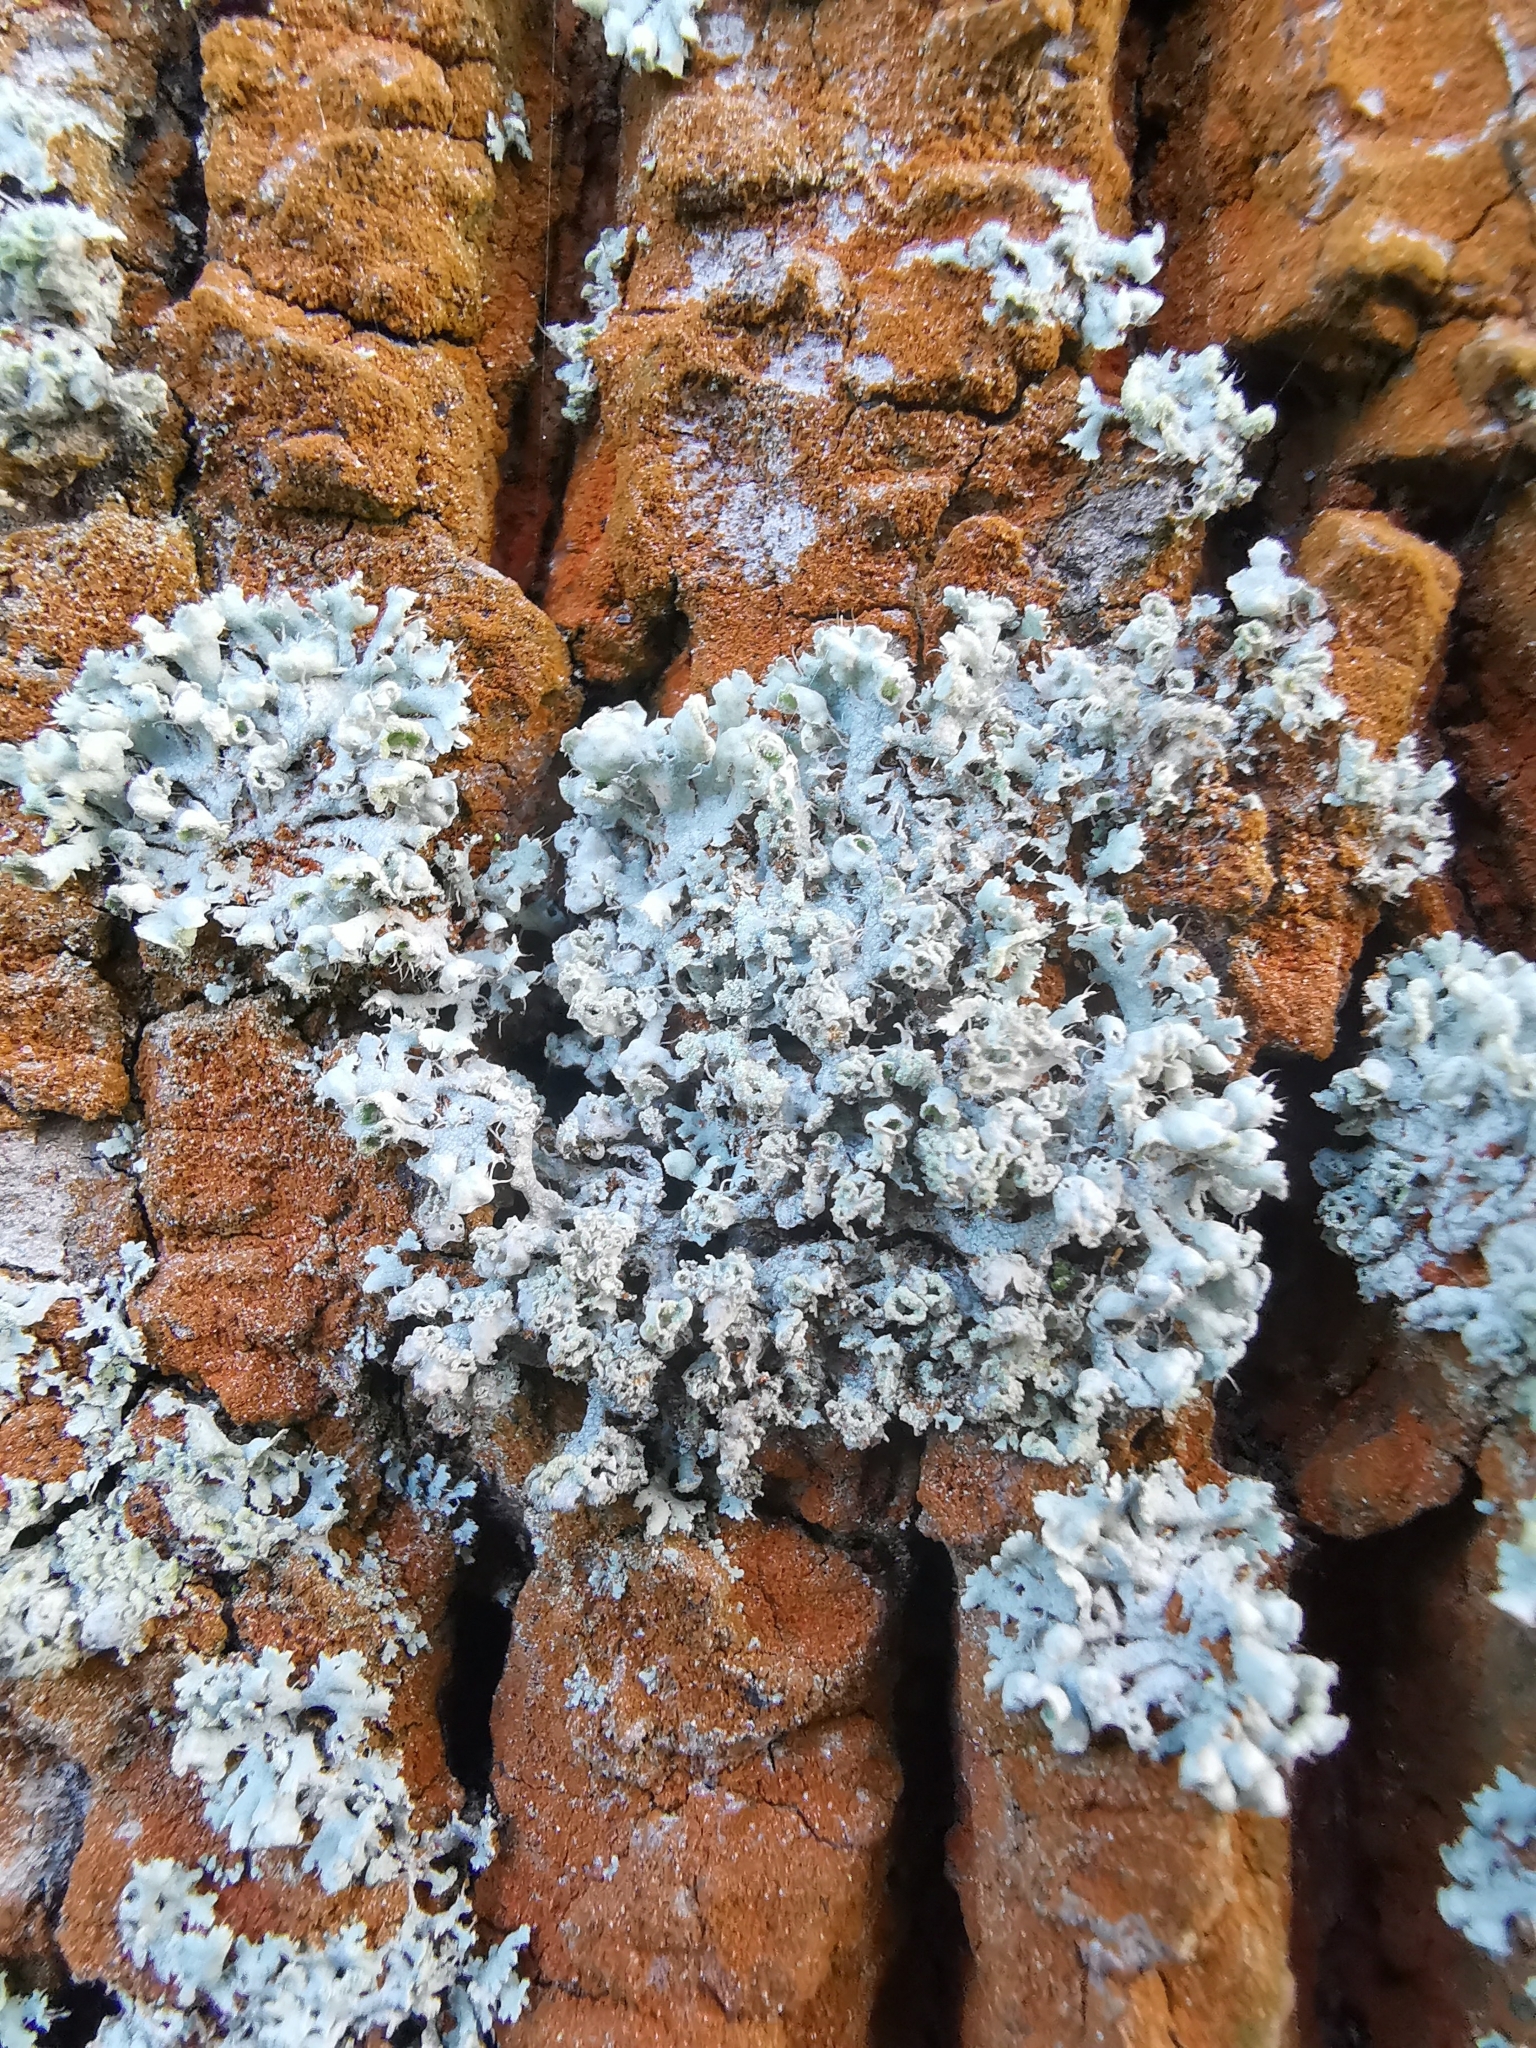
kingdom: Fungi
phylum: Ascomycota
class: Lecanoromycetes
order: Caliciales
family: Physciaceae
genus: Physcia
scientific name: Physcia adscendens
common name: Hooded rosette lichen
